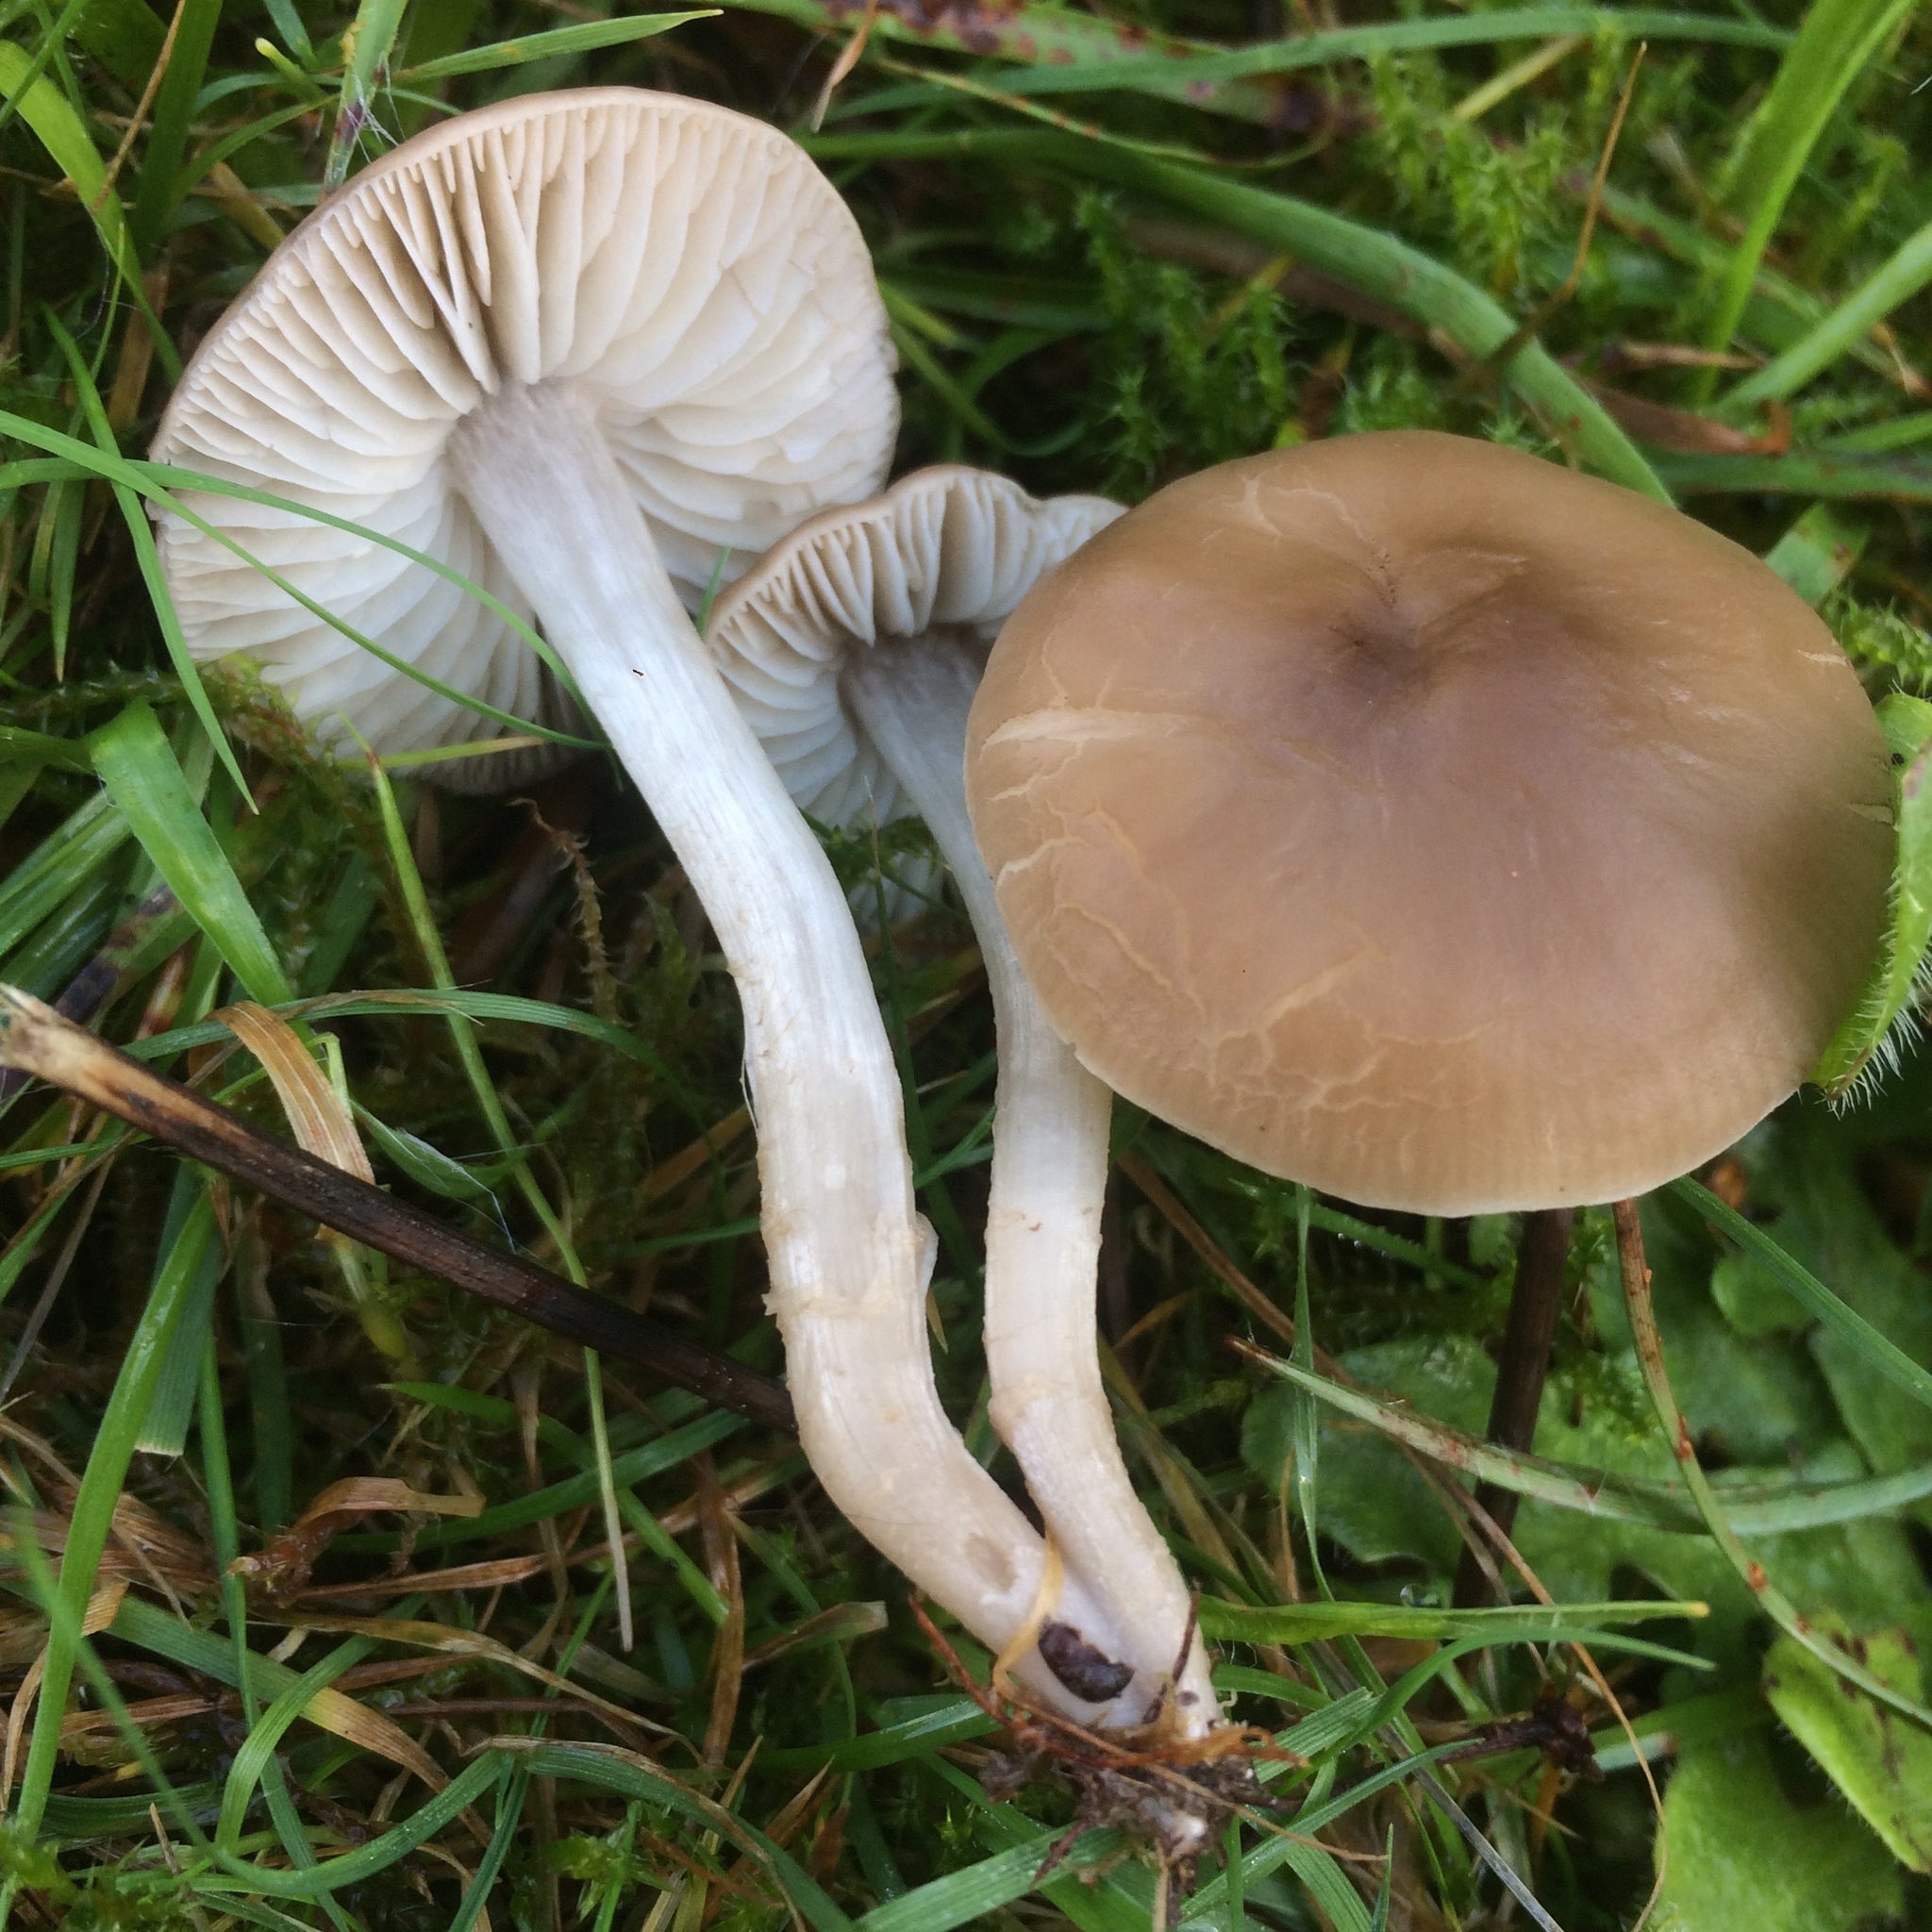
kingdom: Fungi
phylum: Basidiomycota
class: Agaricomycetes
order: Agaricales
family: Tricholomataceae
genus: Dermoloma
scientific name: Dermoloma cuneifolium
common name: Crazed cap
